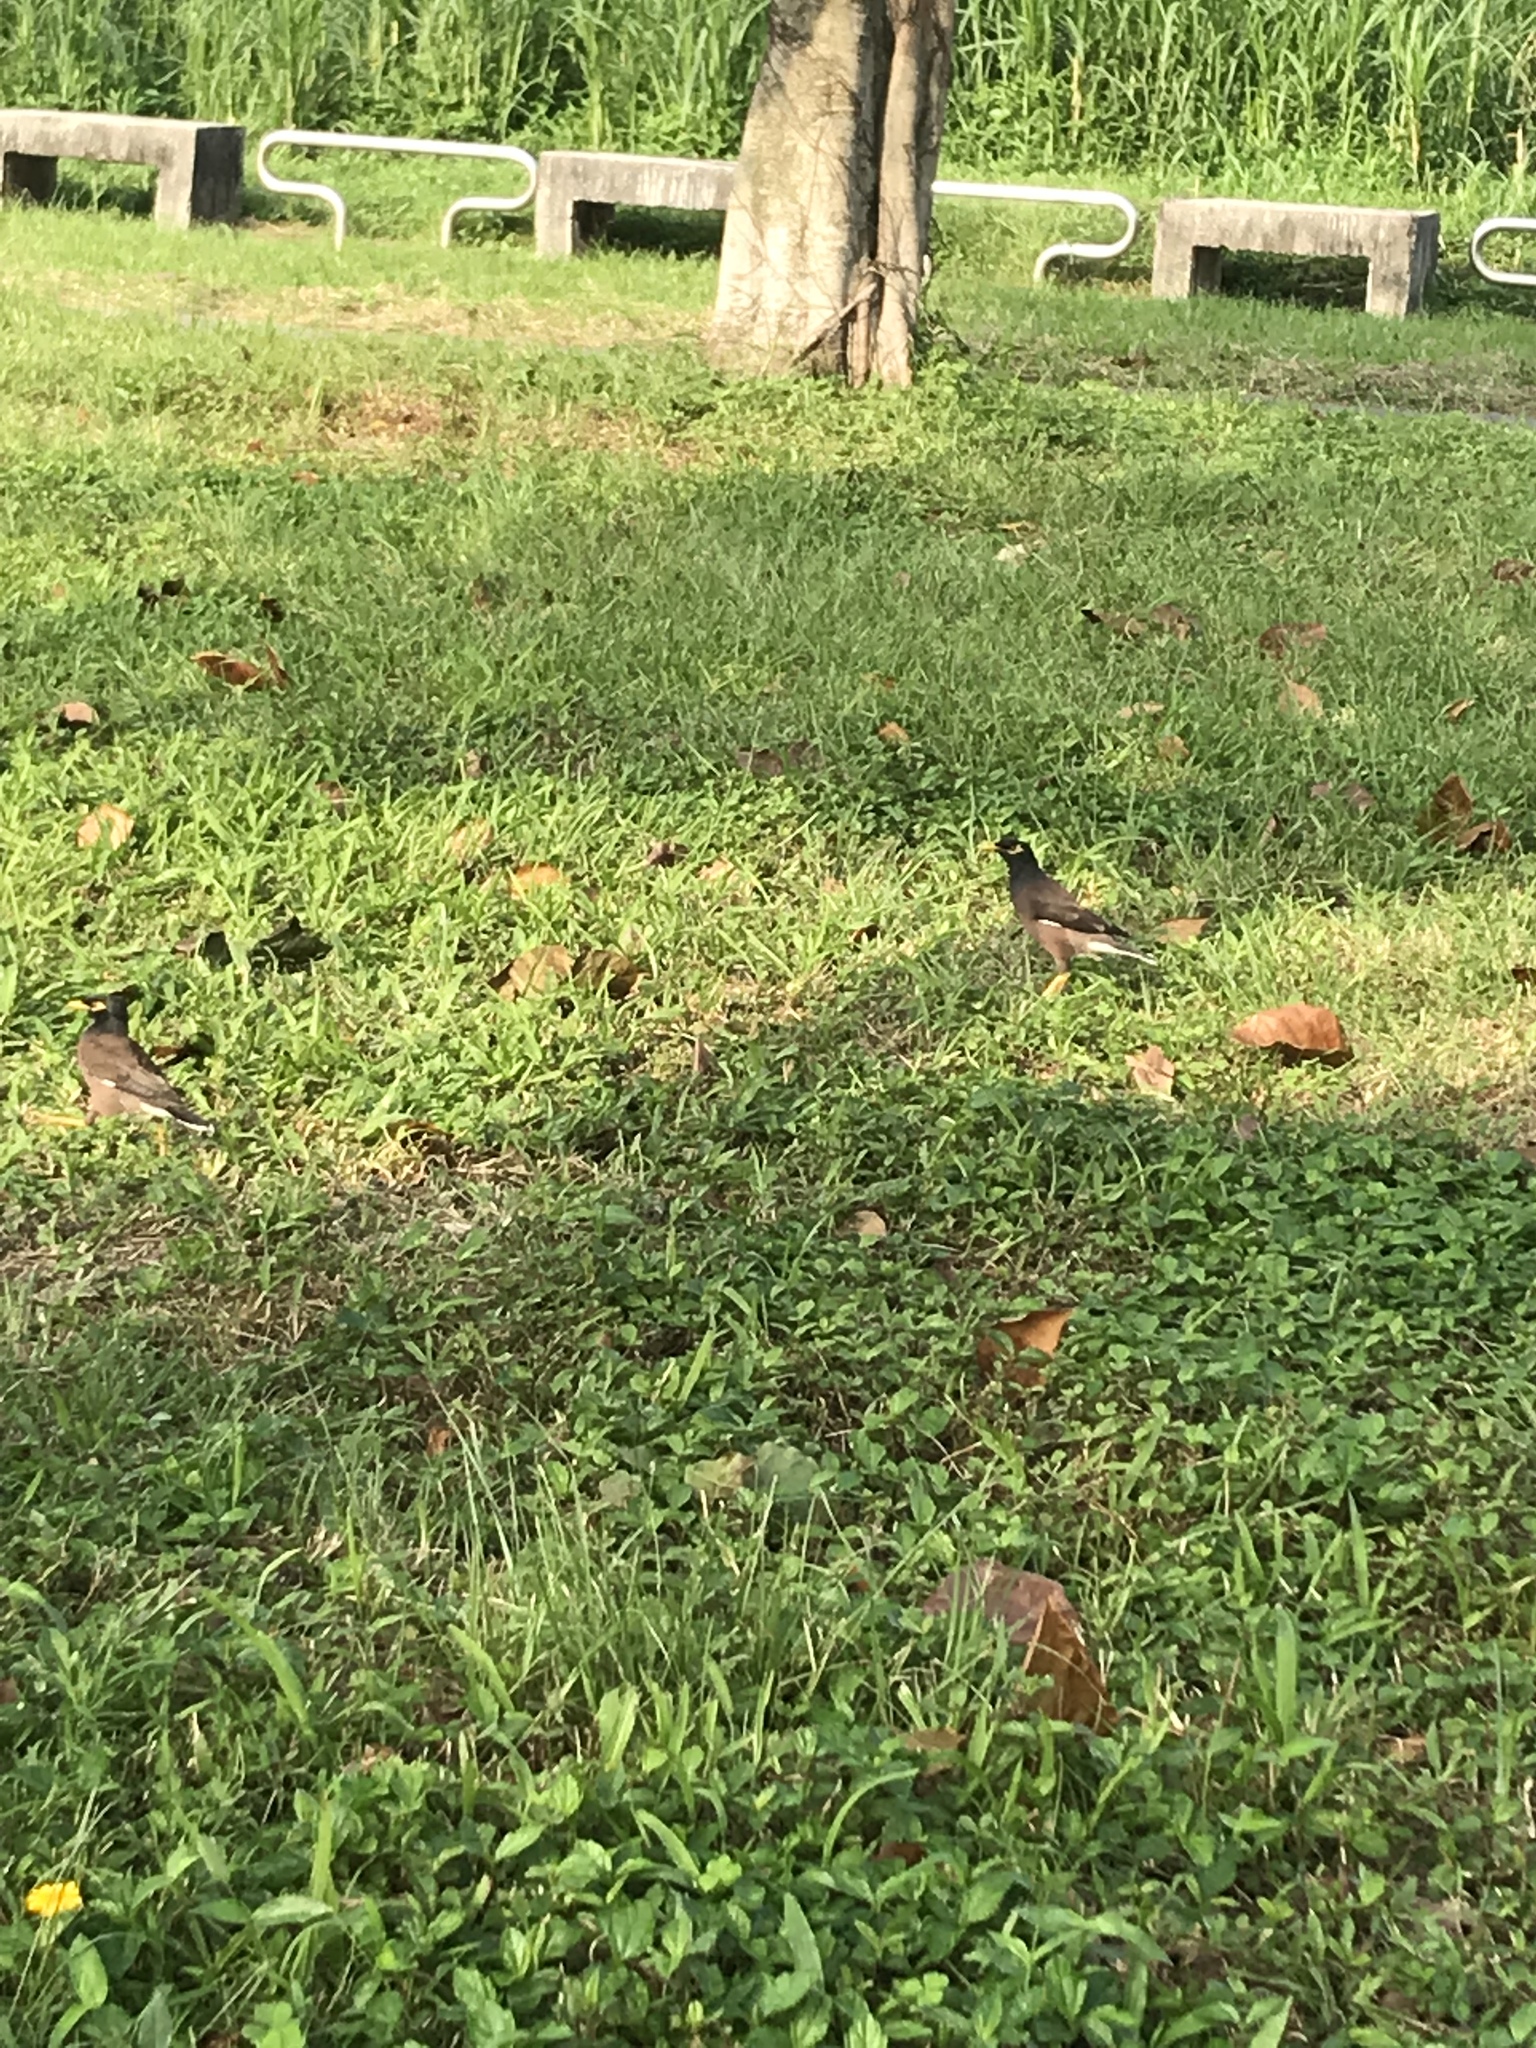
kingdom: Animalia
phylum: Chordata
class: Aves
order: Passeriformes
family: Sturnidae
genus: Acridotheres
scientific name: Acridotheres tristis
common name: Common myna
